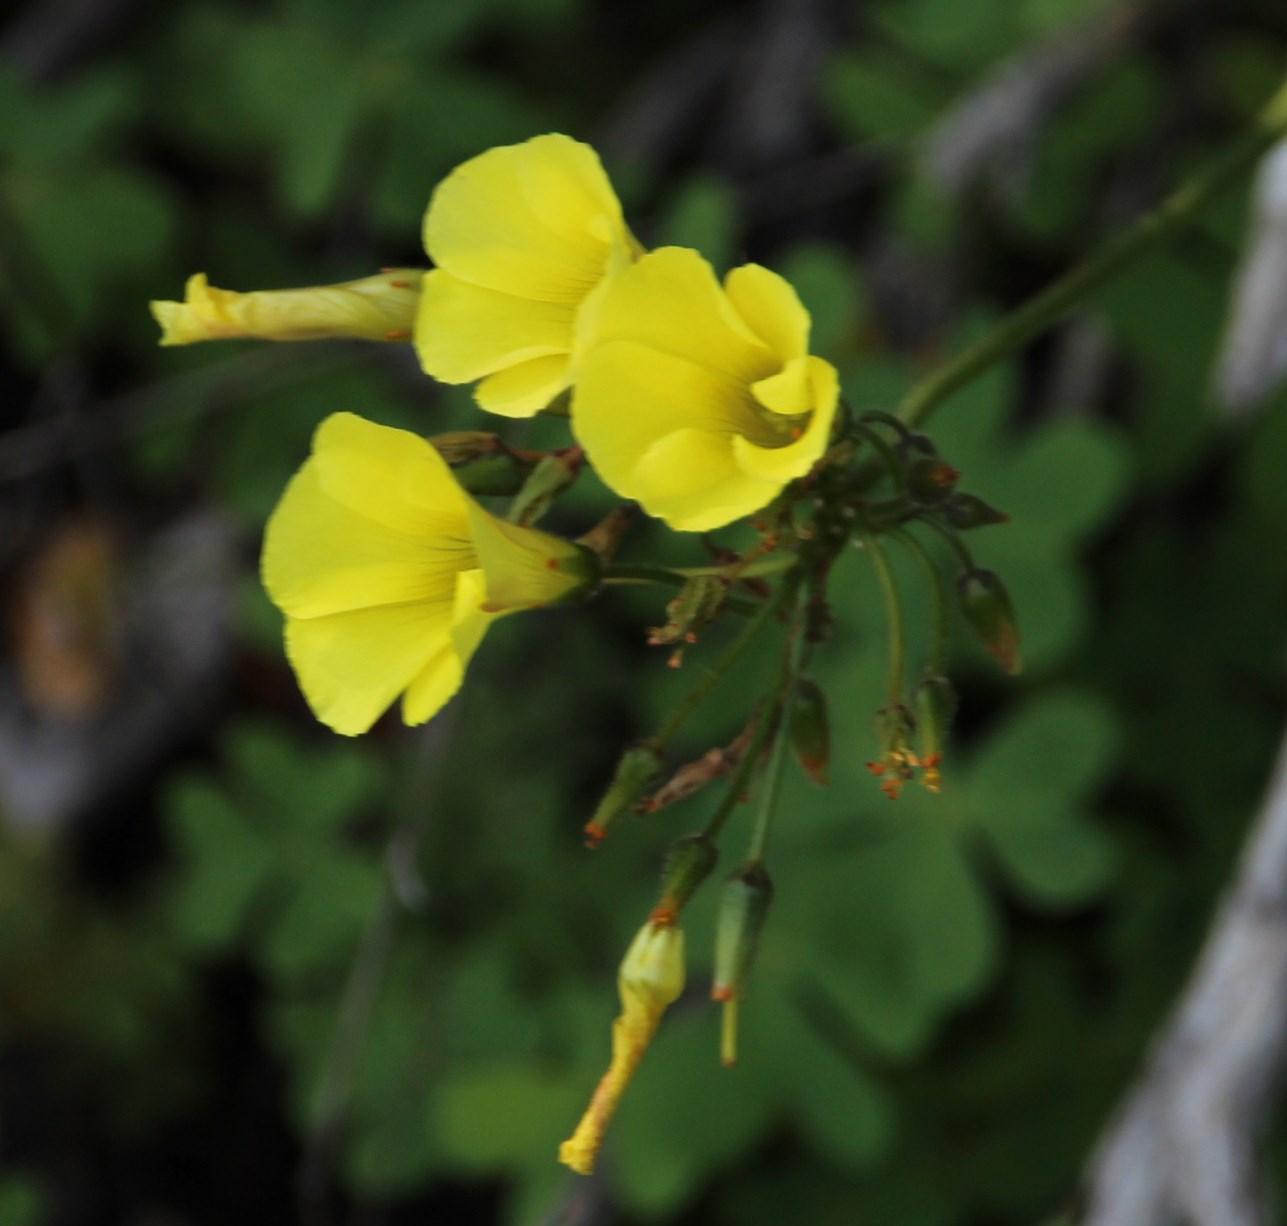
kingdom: Plantae
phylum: Tracheophyta
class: Magnoliopsida
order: Oxalidales
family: Oxalidaceae
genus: Oxalis
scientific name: Oxalis pes-caprae
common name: Bermuda-buttercup
